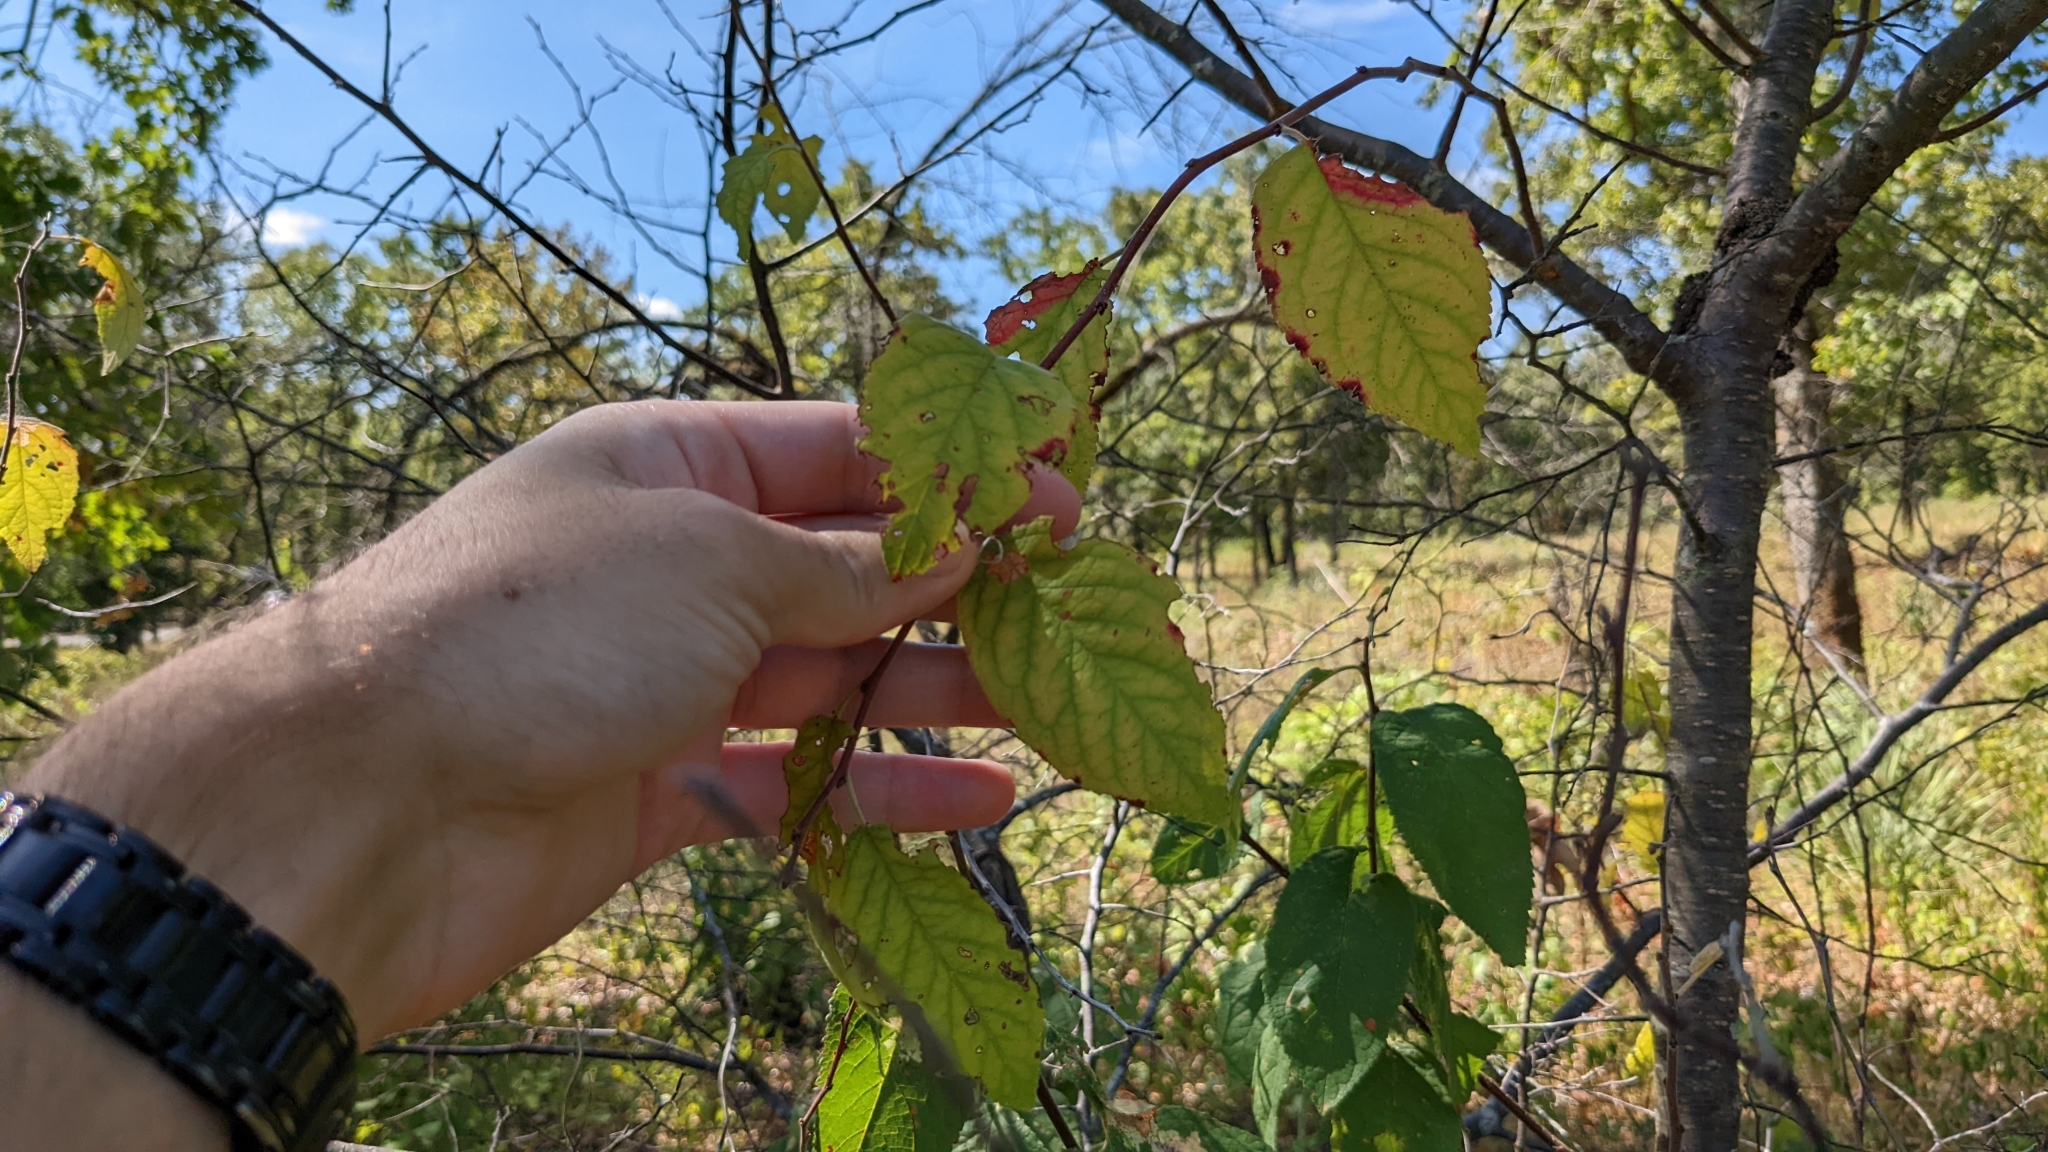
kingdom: Plantae
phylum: Tracheophyta
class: Magnoliopsida
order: Rosales
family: Rosaceae
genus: Prunus
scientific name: Prunus mexicana
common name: Mexican plum
